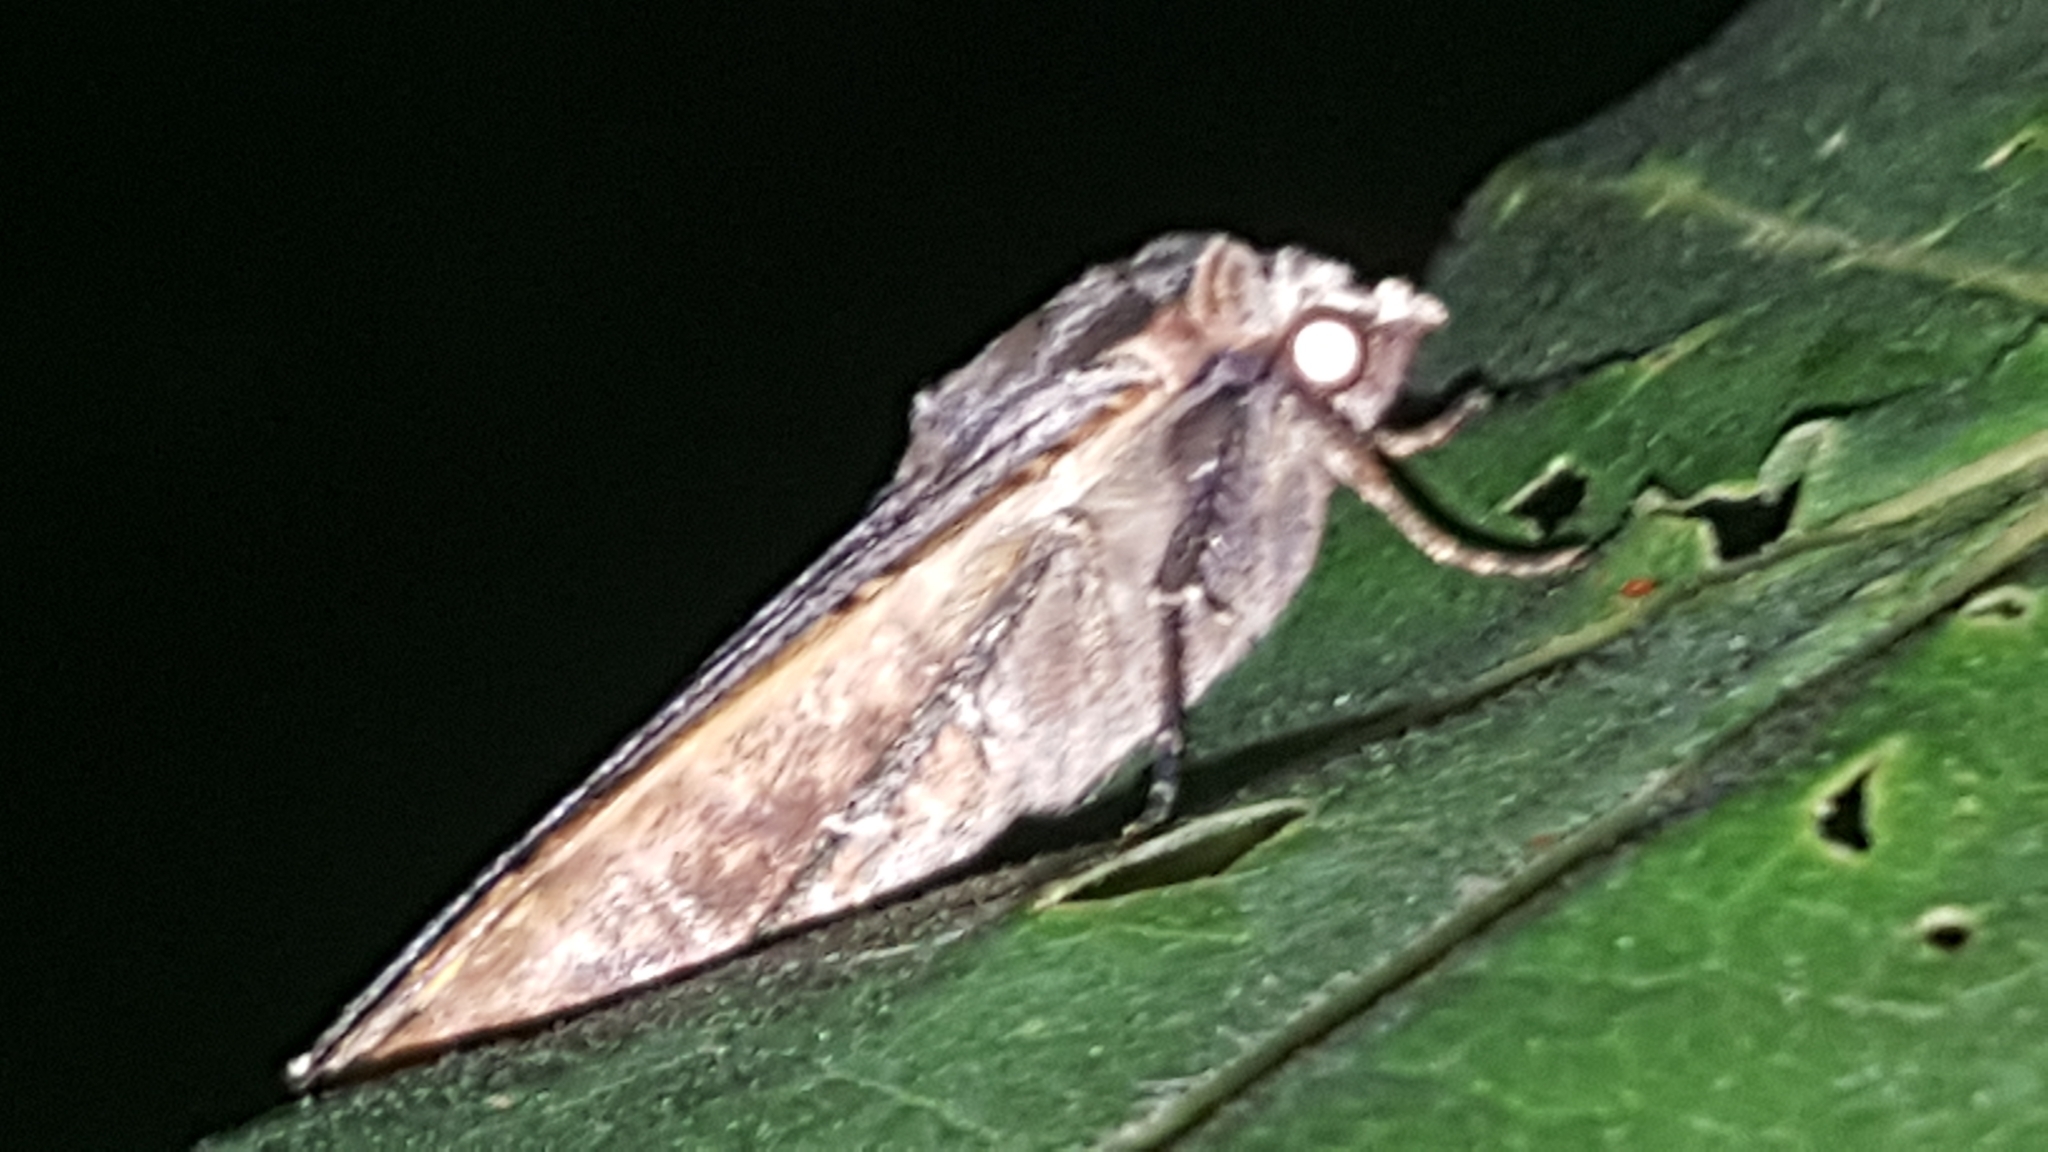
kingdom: Animalia
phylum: Arthropoda
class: Insecta
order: Lepidoptera
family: Noctuidae
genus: Noctua
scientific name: Noctua pronuba
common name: Large yellow underwing
